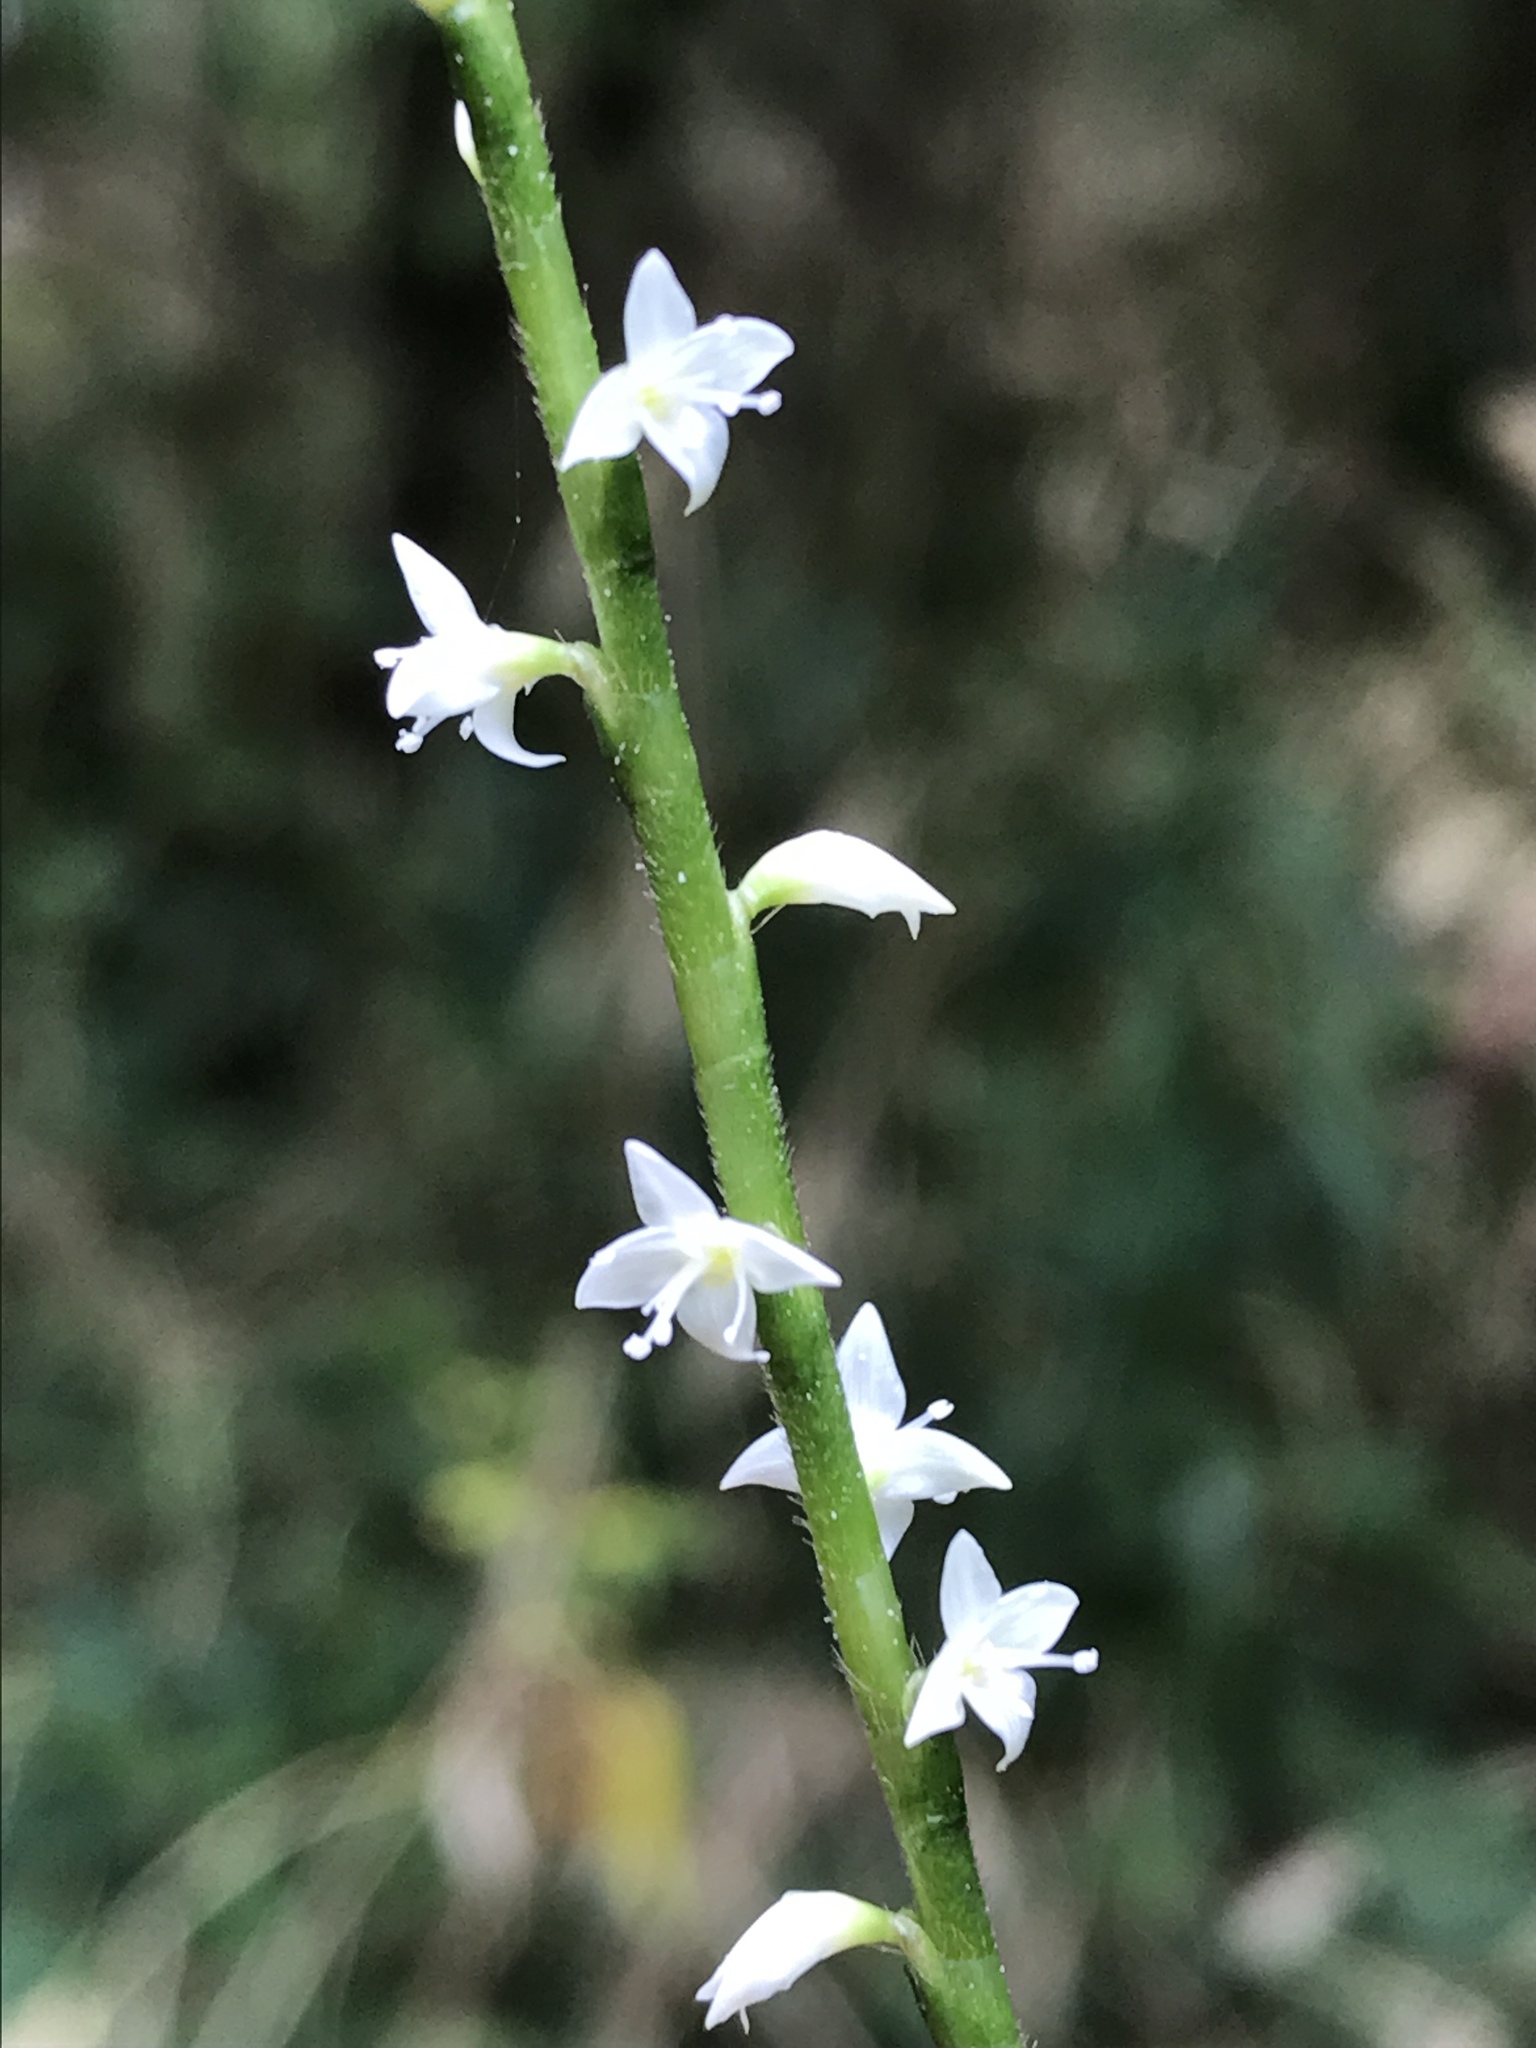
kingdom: Plantae
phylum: Tracheophyta
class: Magnoliopsida
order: Caryophyllales
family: Polygonaceae
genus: Persicaria
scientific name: Persicaria virginiana
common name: Jumpseed
